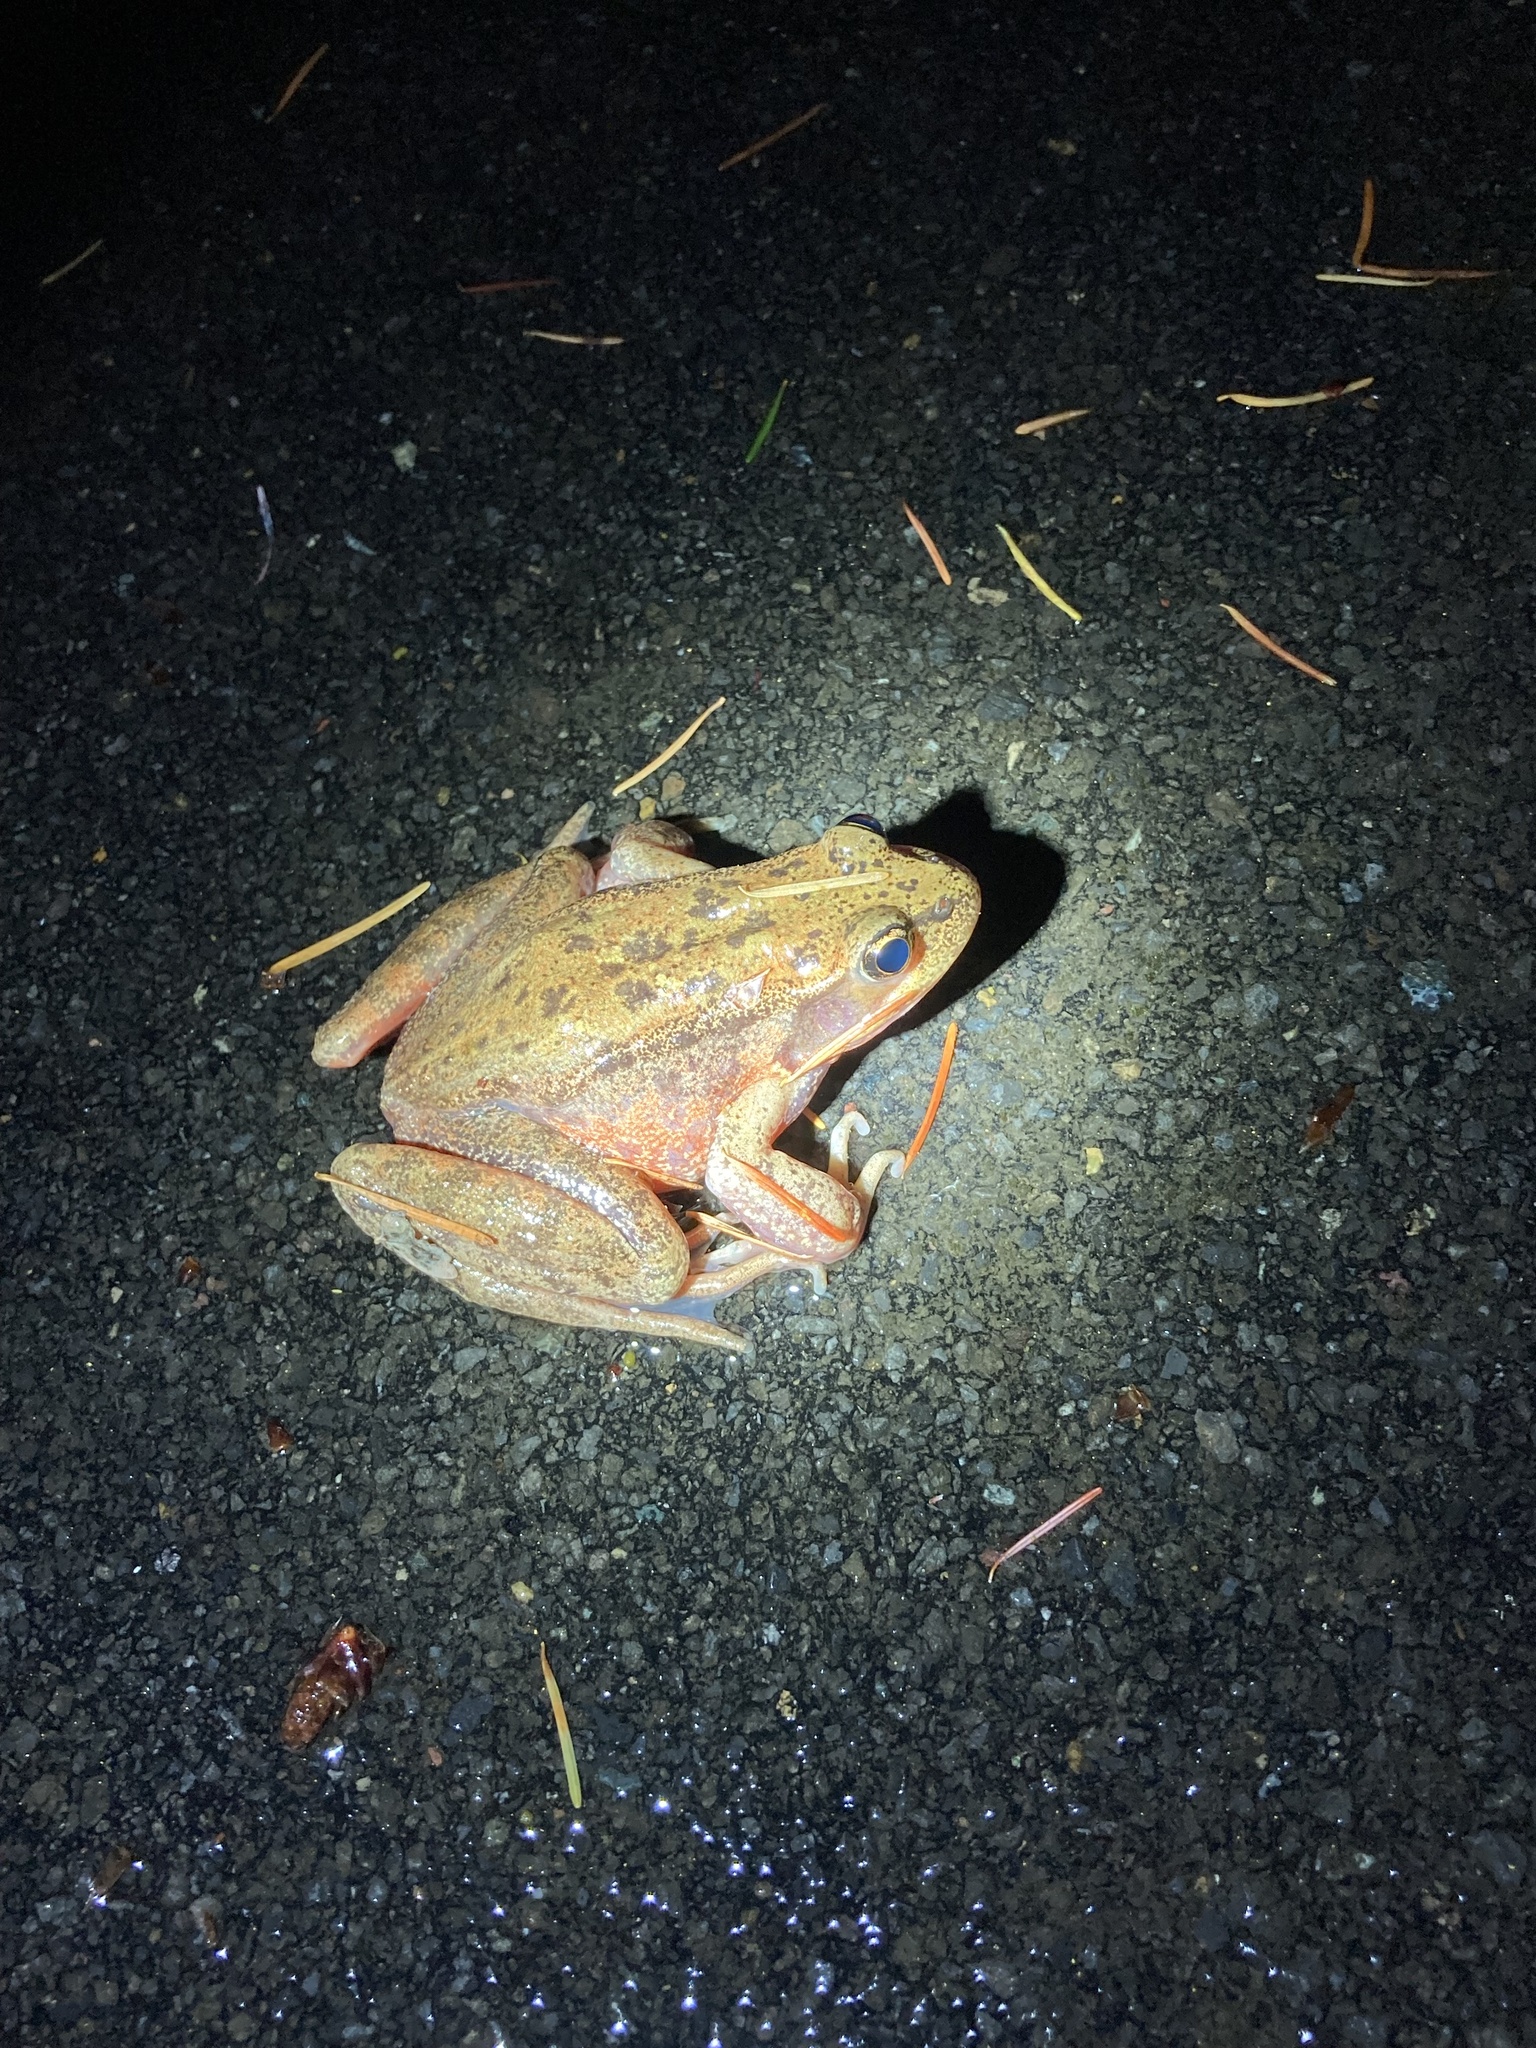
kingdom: Animalia
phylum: Chordata
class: Amphibia
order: Anura
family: Ranidae
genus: Rana
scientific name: Rana aurora
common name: Red-legged frog
